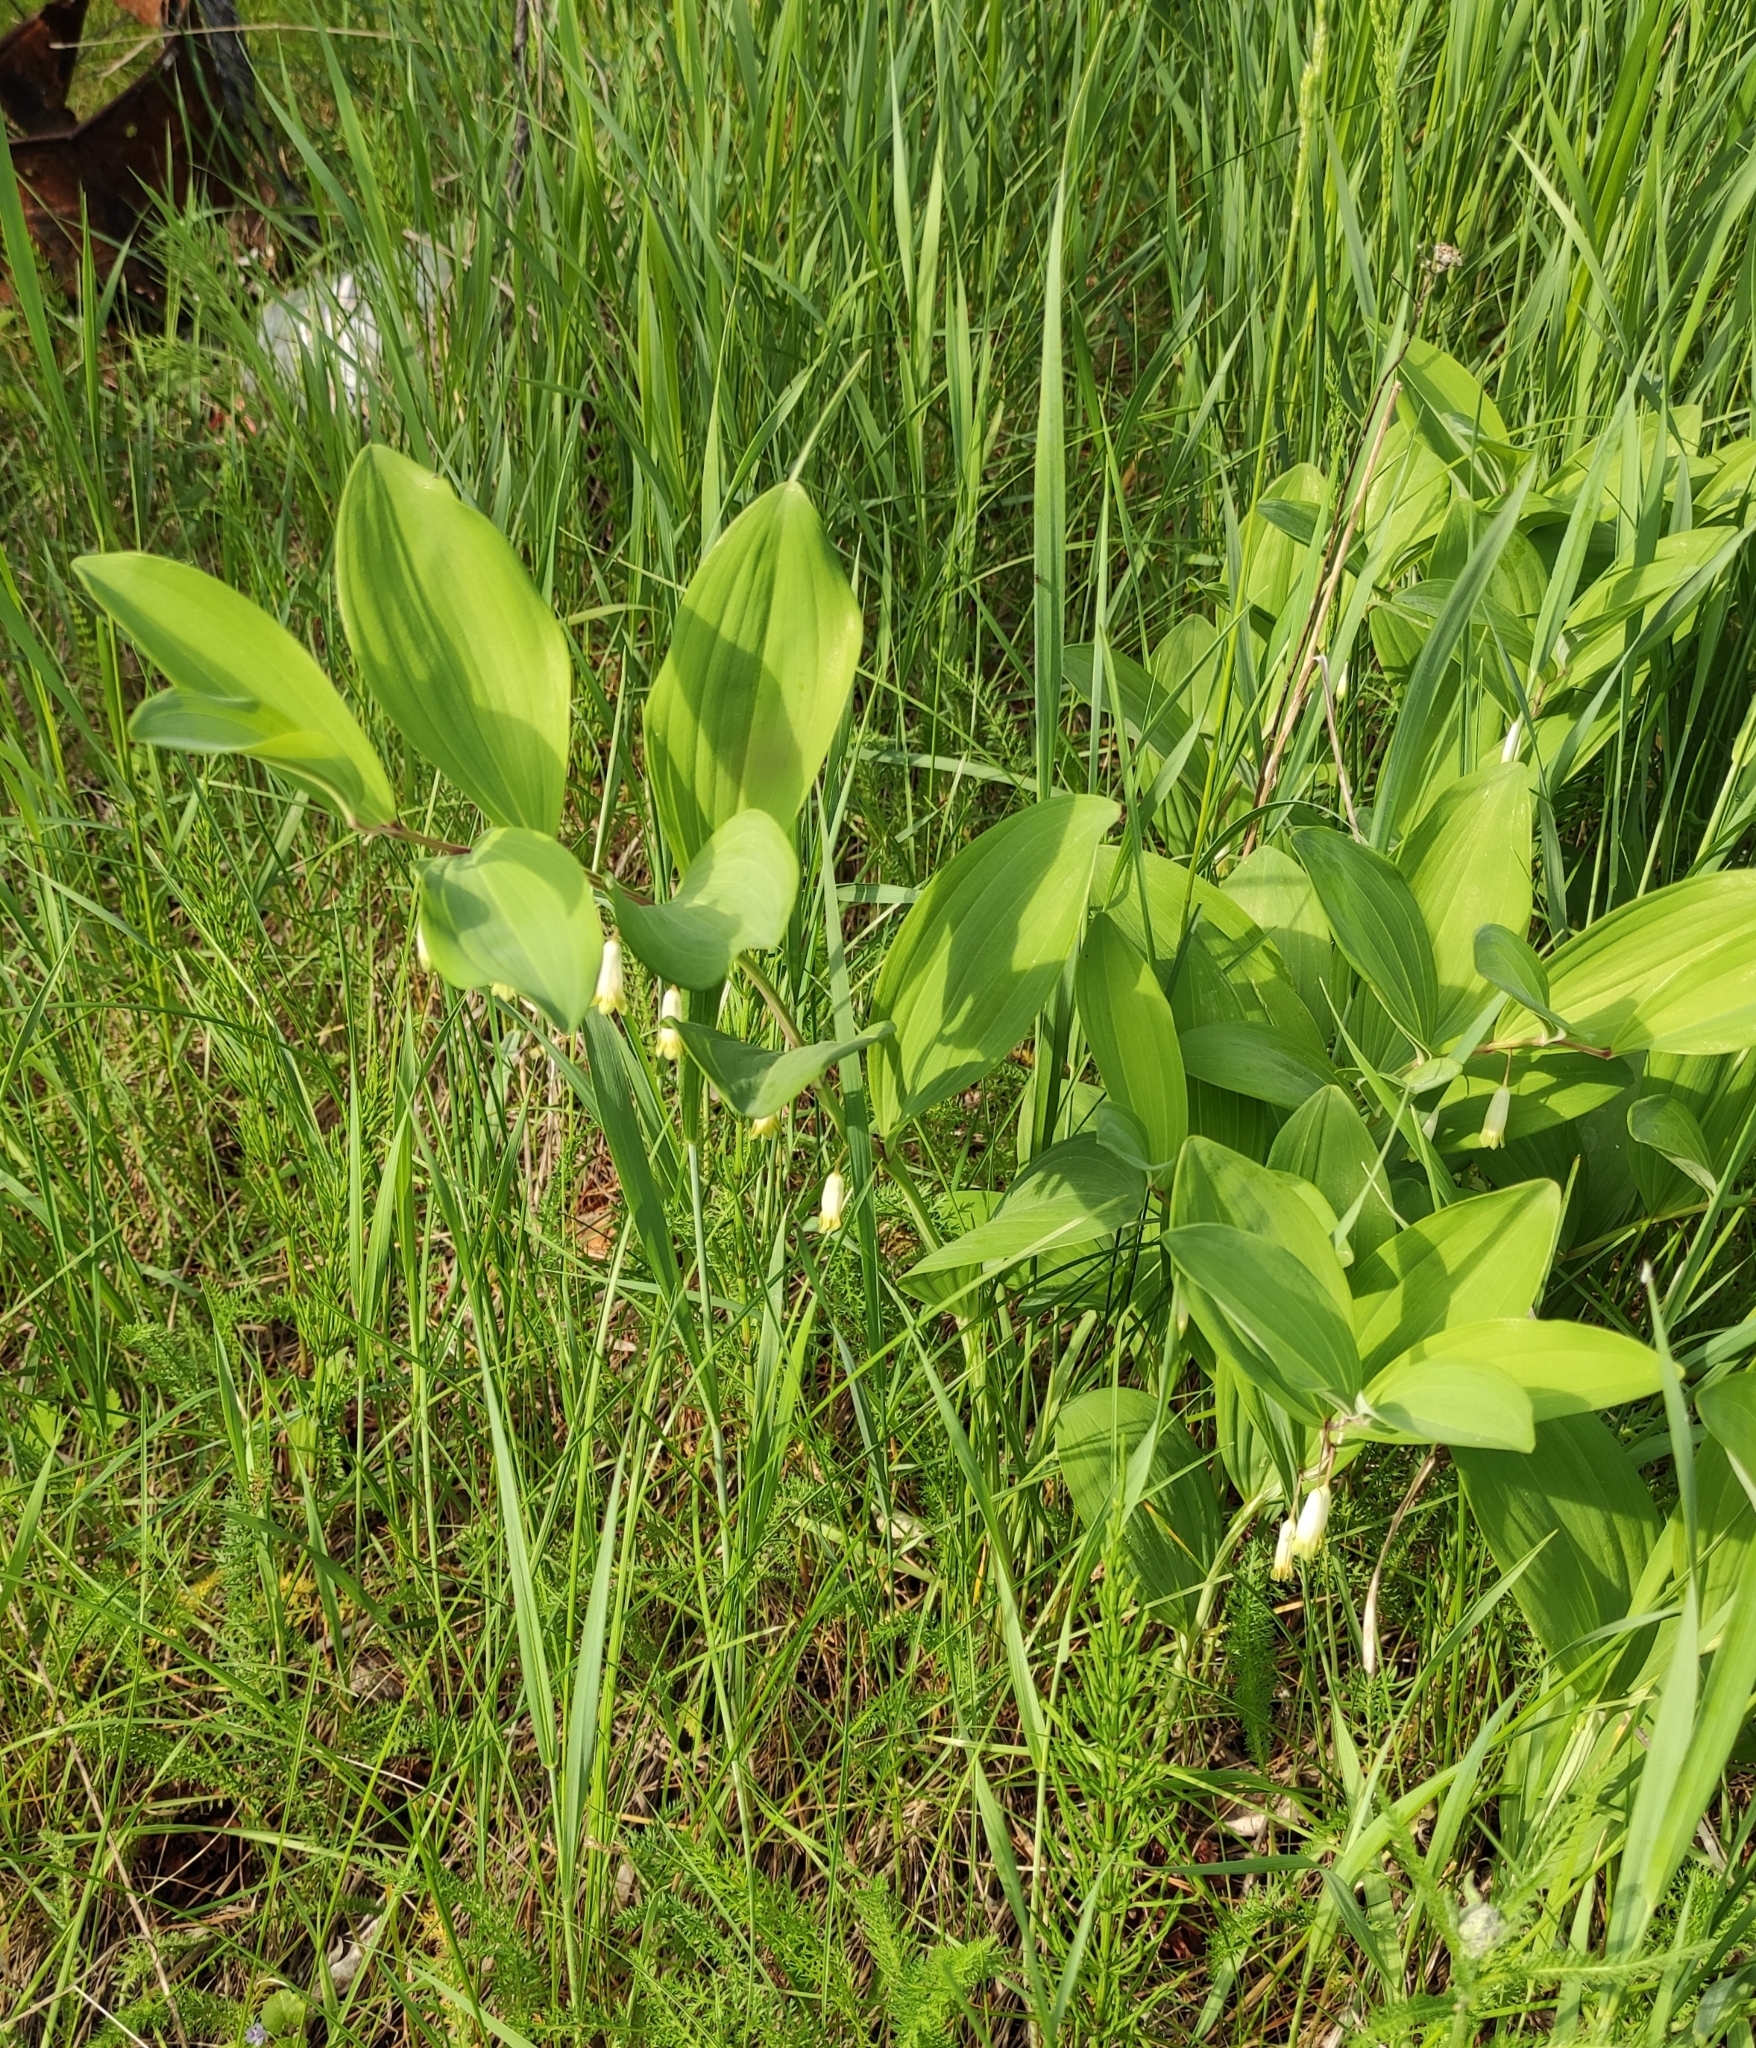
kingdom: Plantae
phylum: Tracheophyta
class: Liliopsida
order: Asparagales
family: Asparagaceae
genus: Polygonatum
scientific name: Polygonatum odoratum
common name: Angular solomon's-seal
